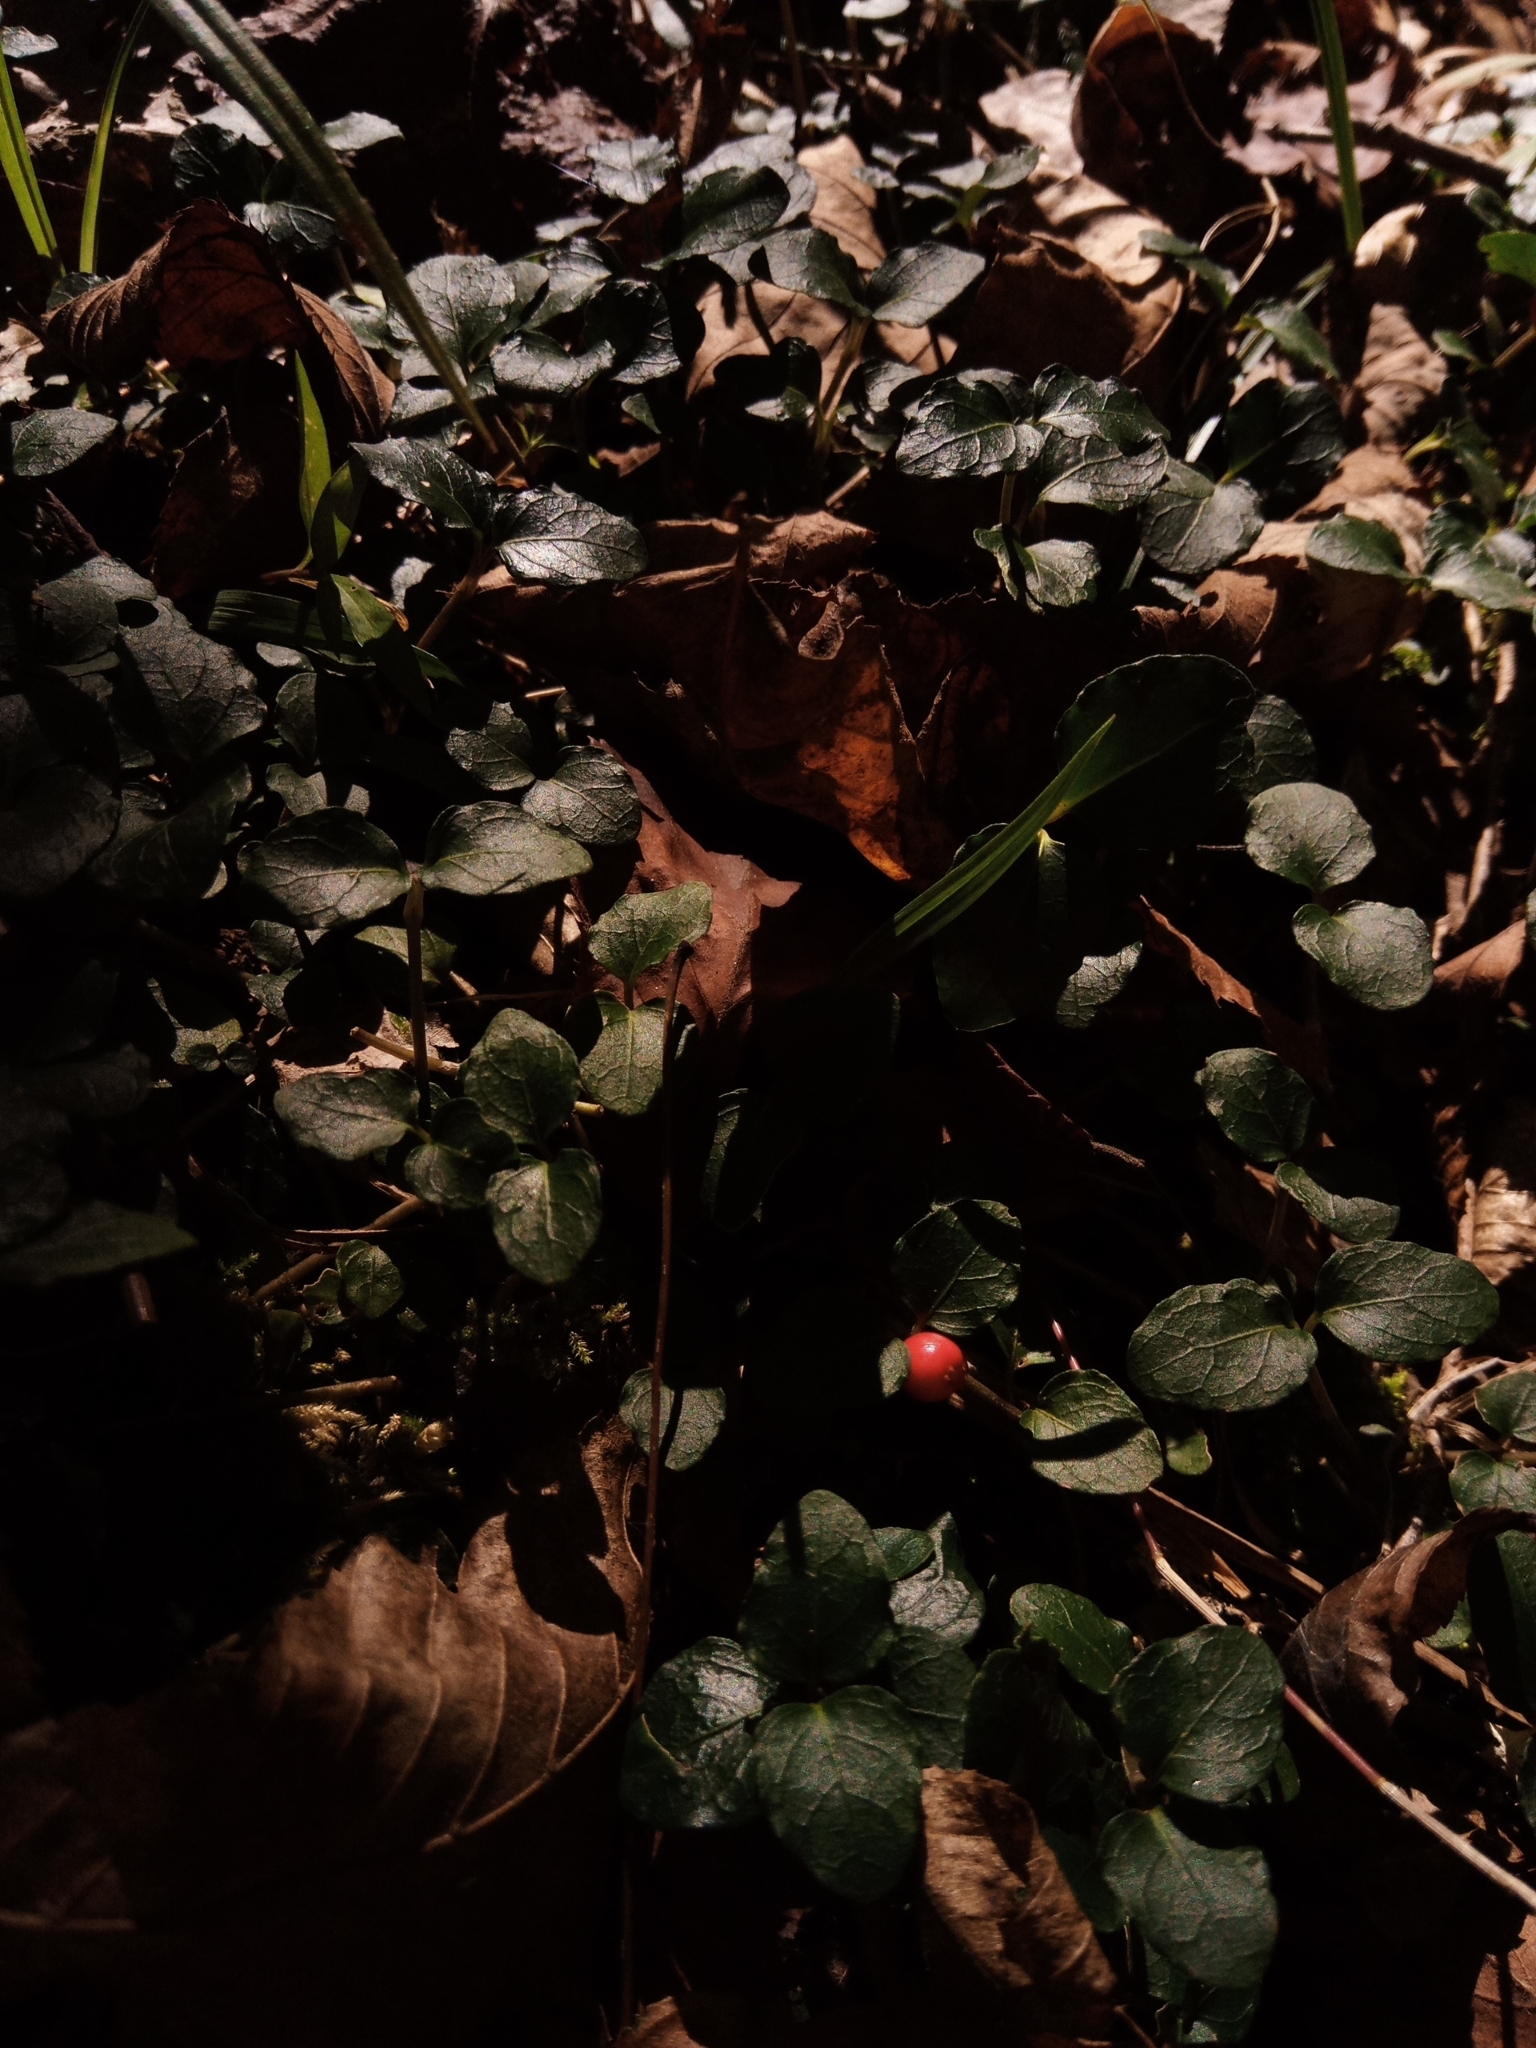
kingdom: Plantae
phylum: Tracheophyta
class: Magnoliopsida
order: Gentianales
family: Rubiaceae
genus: Mitchella
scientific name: Mitchella repens
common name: Partridge-berry
